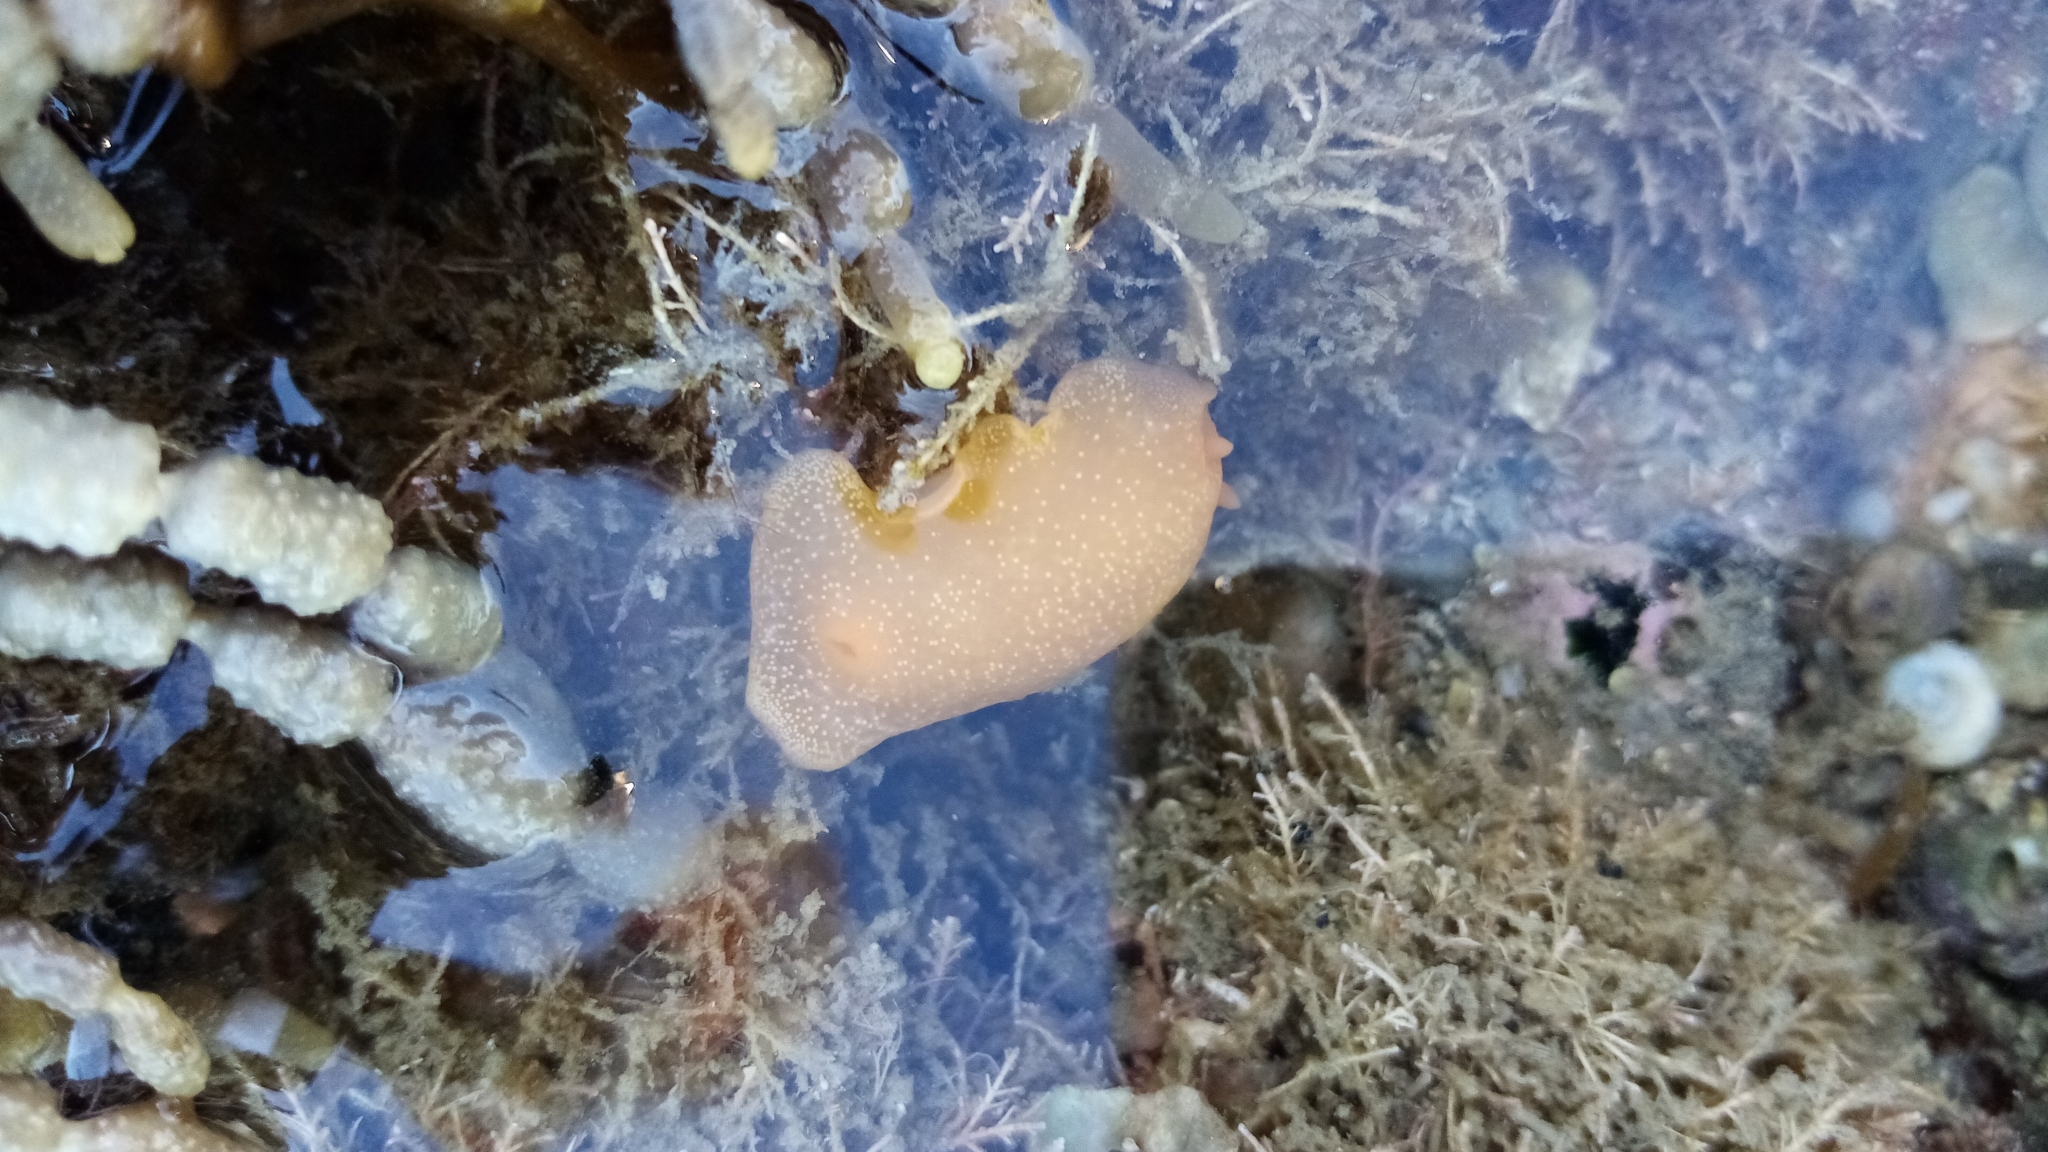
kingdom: Animalia
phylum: Mollusca
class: Gastropoda
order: Nudibranchia
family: Dendrodorididae
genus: Dendrodoris
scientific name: Dendrodoris citrina
